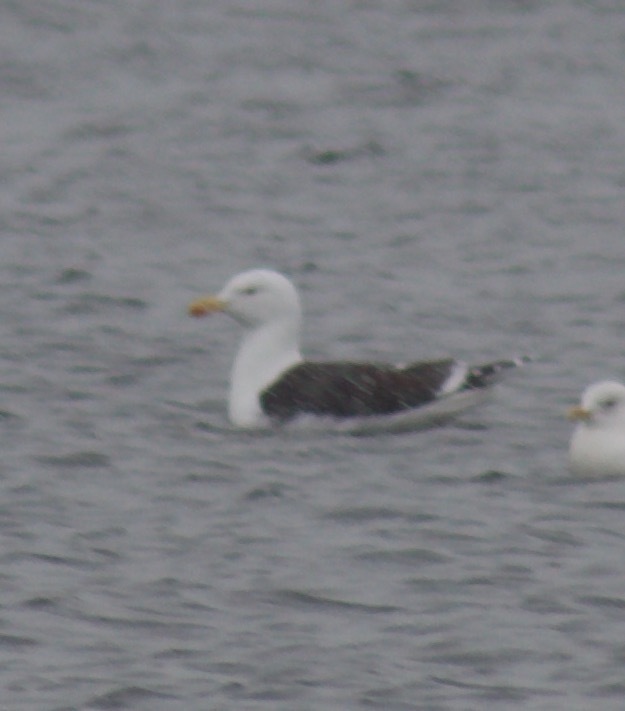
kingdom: Animalia
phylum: Chordata
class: Aves
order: Charadriiformes
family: Laridae
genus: Larus
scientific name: Larus marinus
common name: Great black-backed gull
